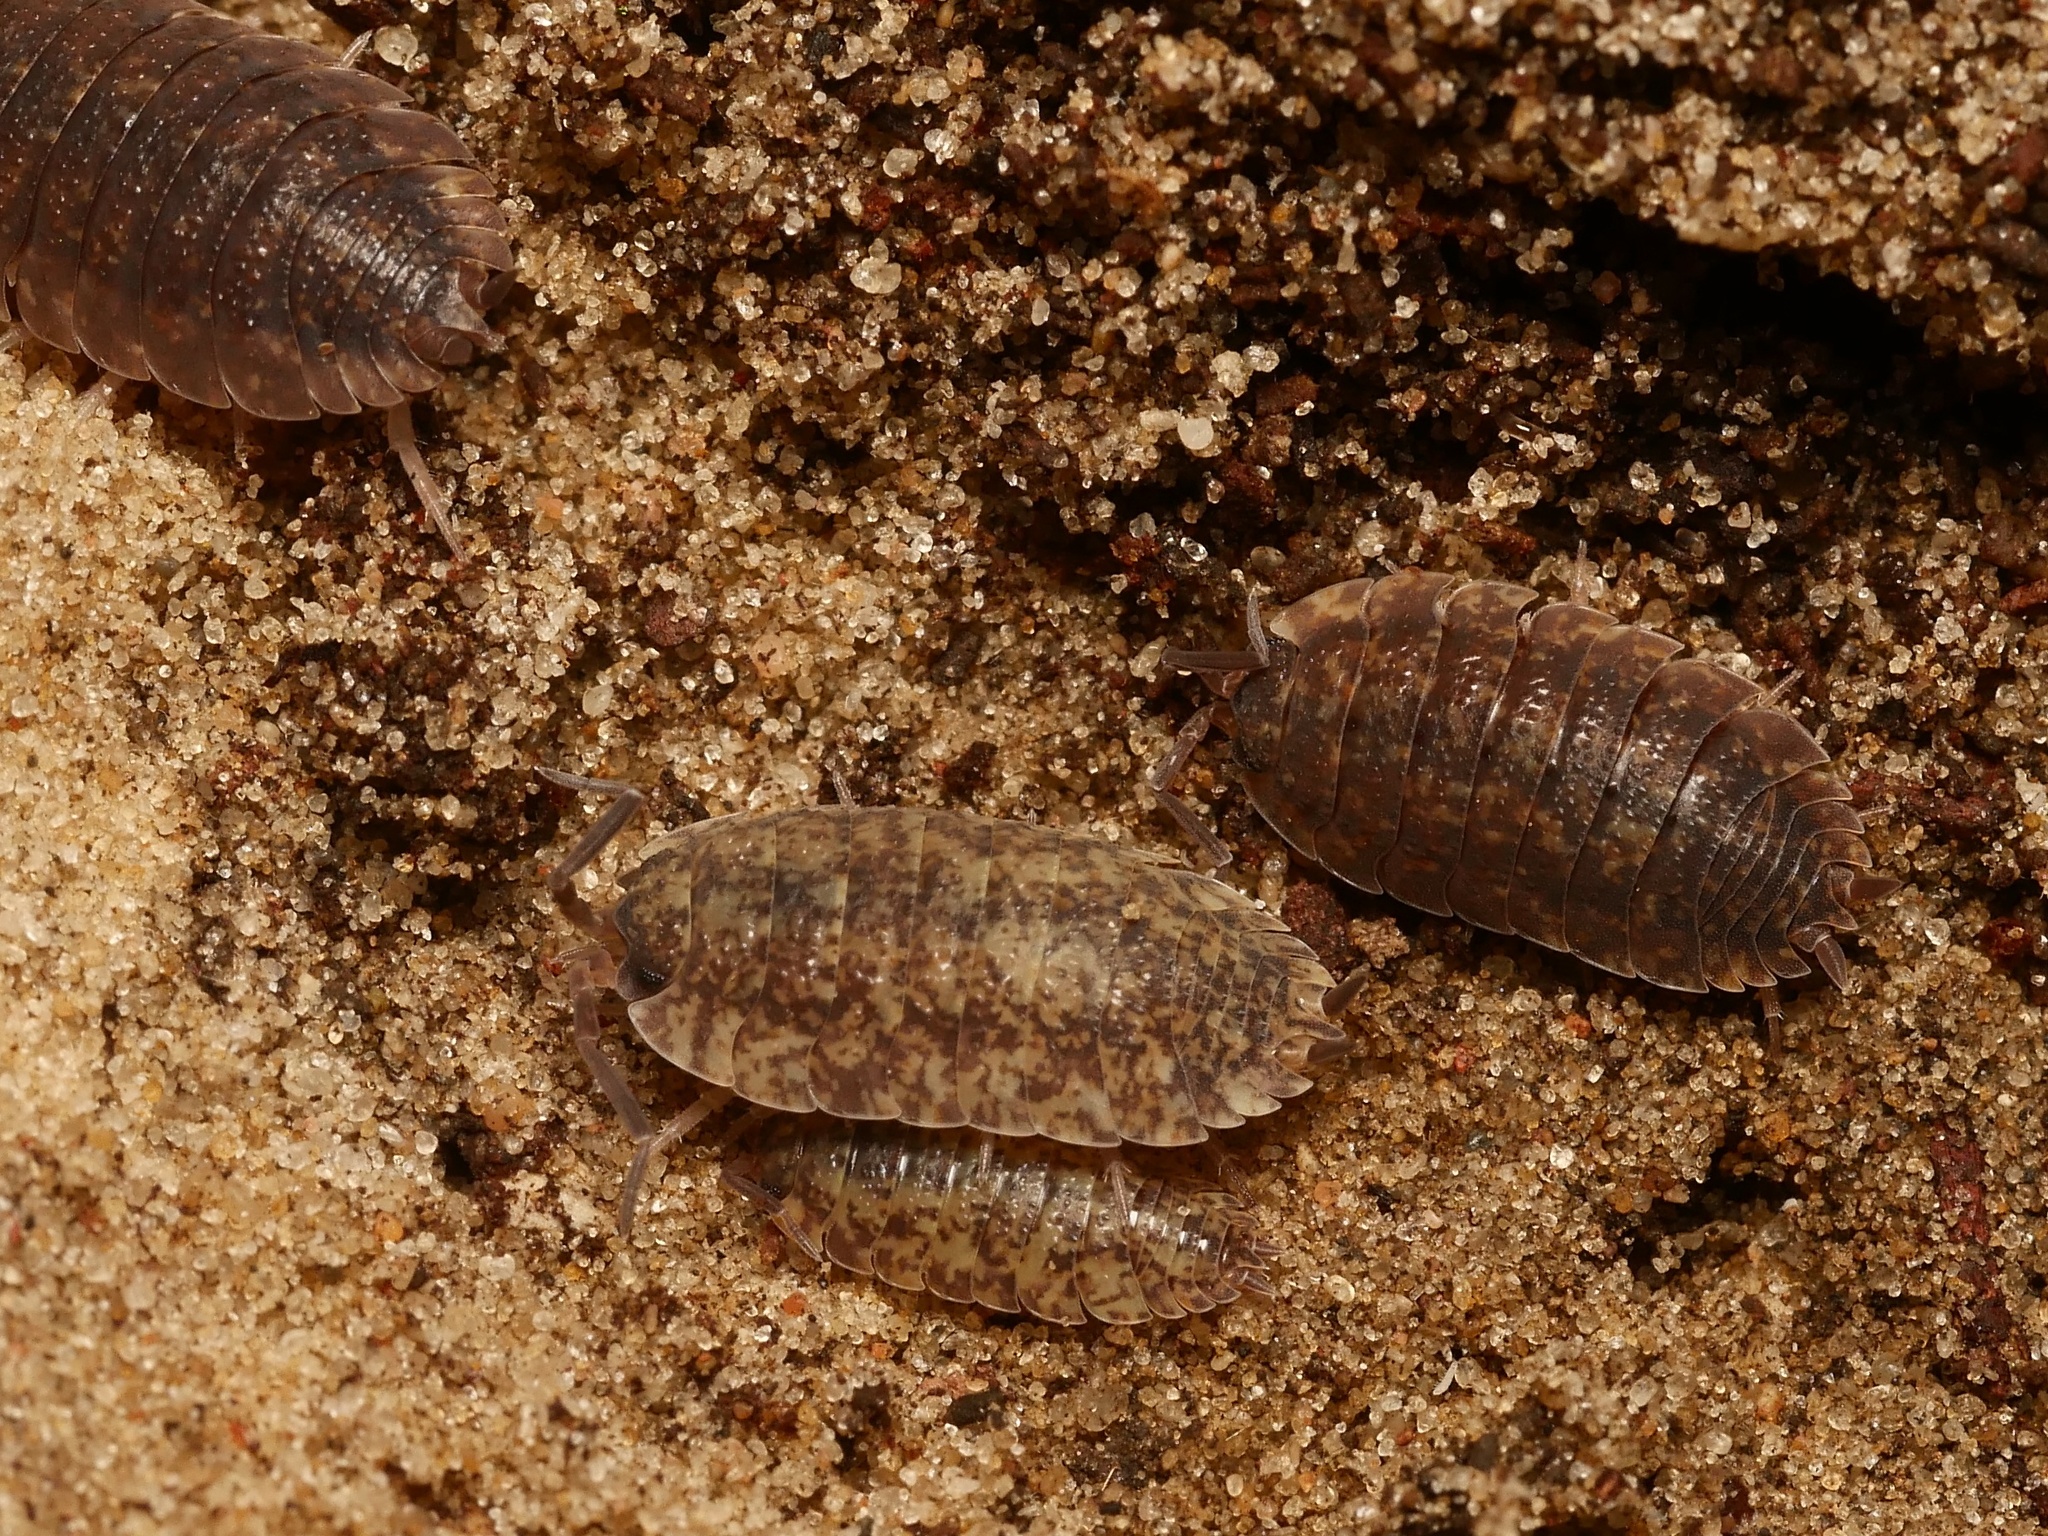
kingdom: Animalia
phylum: Arthropoda
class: Malacostraca
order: Isopoda
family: Porcellionidae
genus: Porcellio
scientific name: Porcellio scaber
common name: Common rough woodlouse
